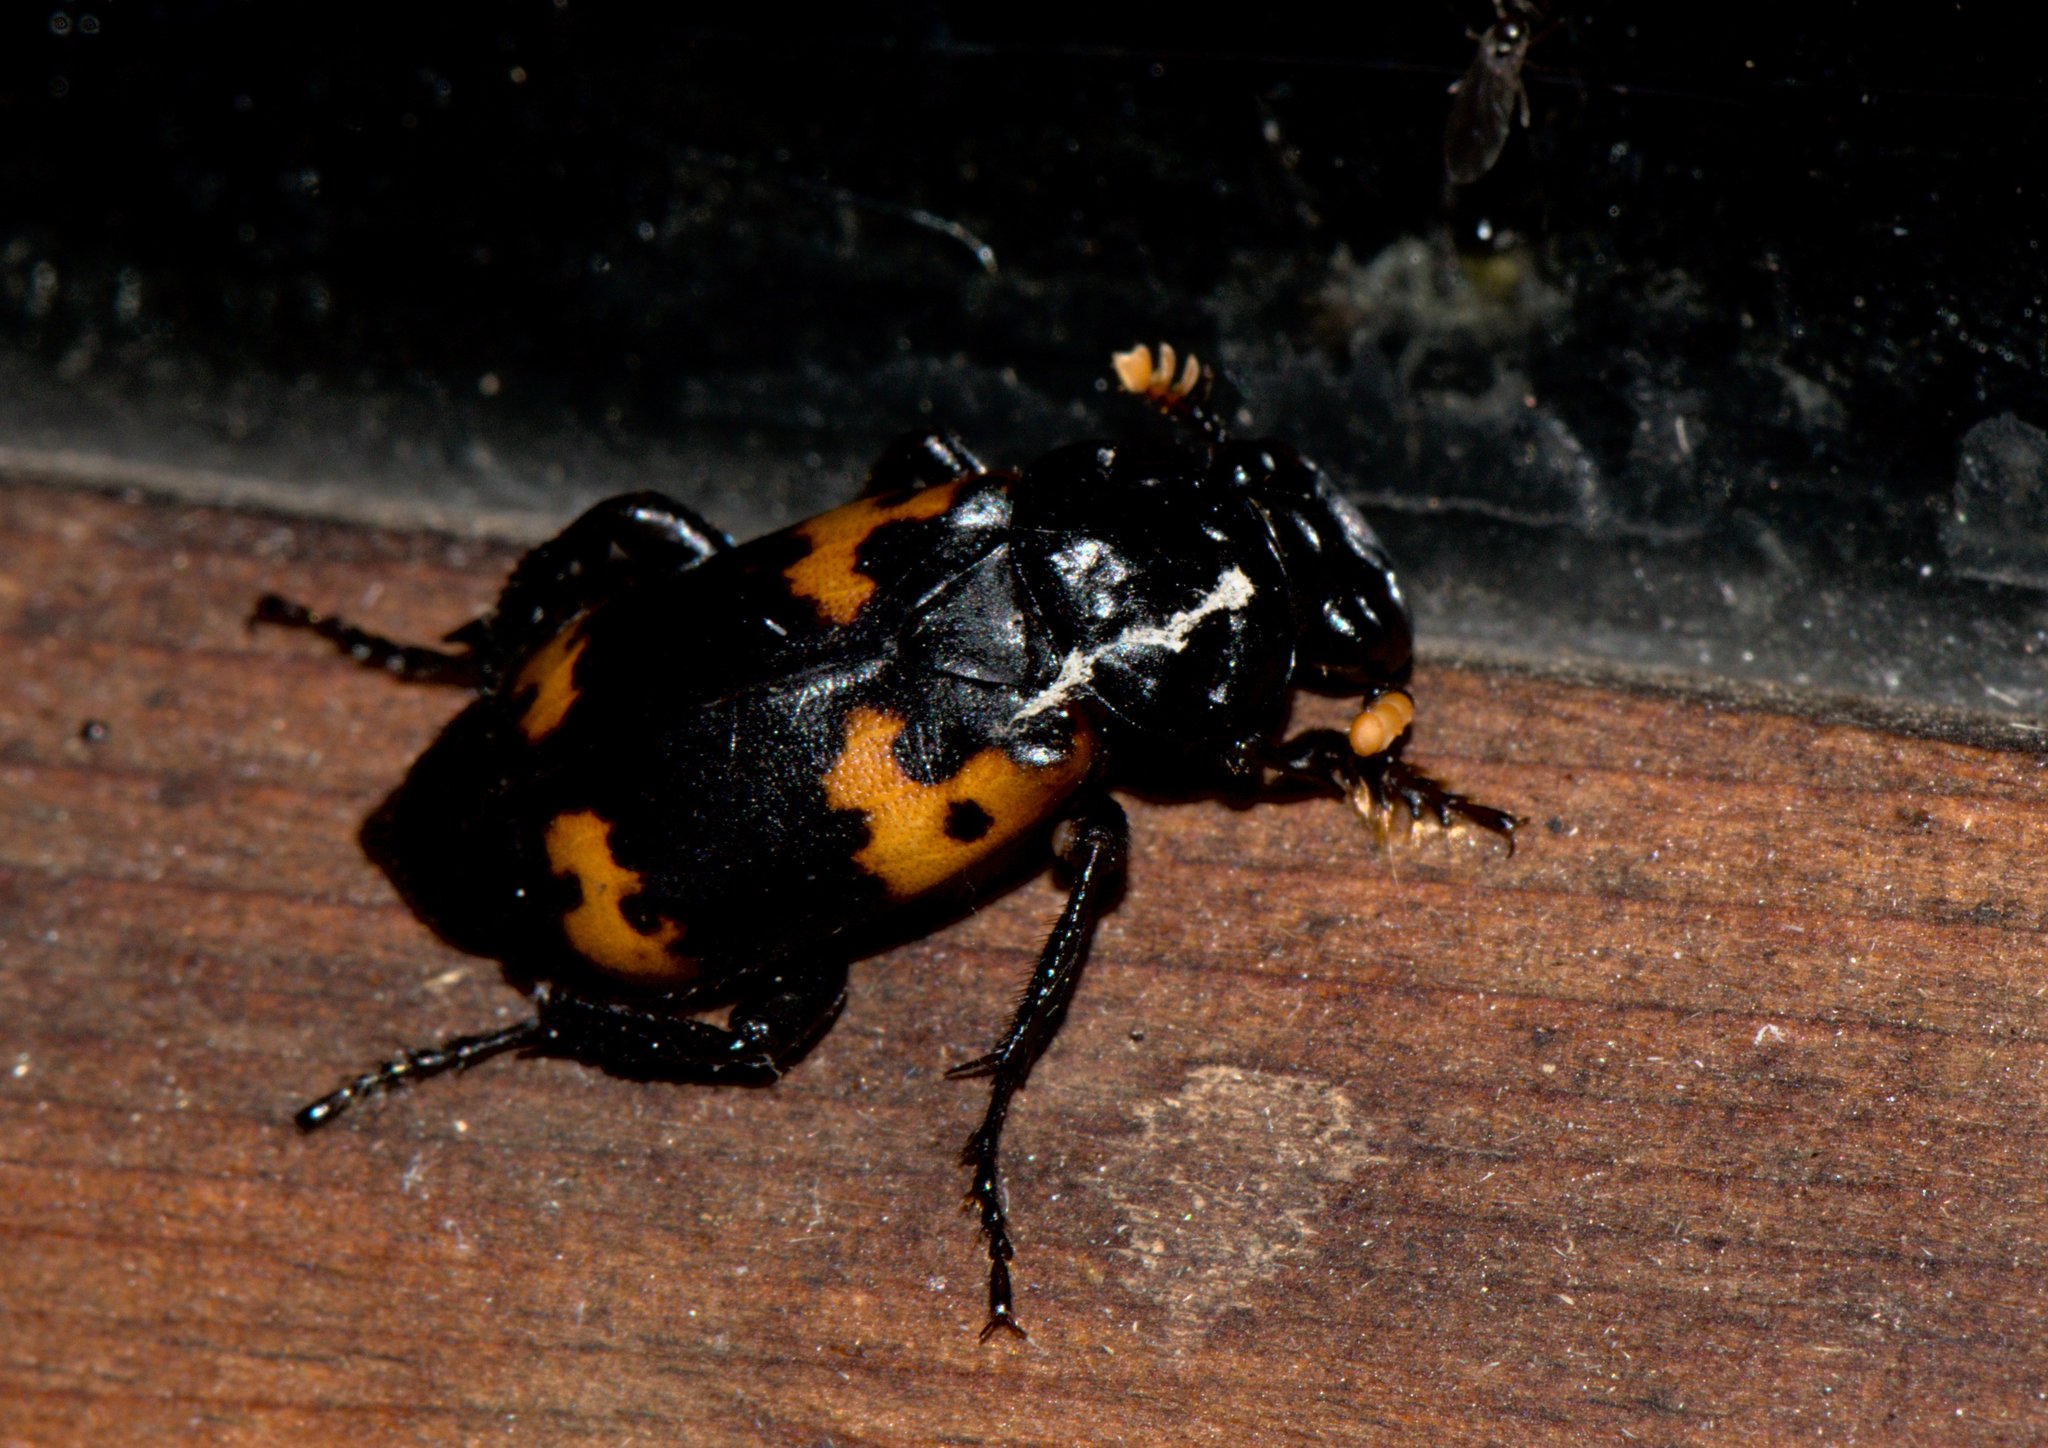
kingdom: Animalia
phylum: Arthropoda
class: Insecta
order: Coleoptera
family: Staphylinidae
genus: Nicrophorus
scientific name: Nicrophorus nepalensis
